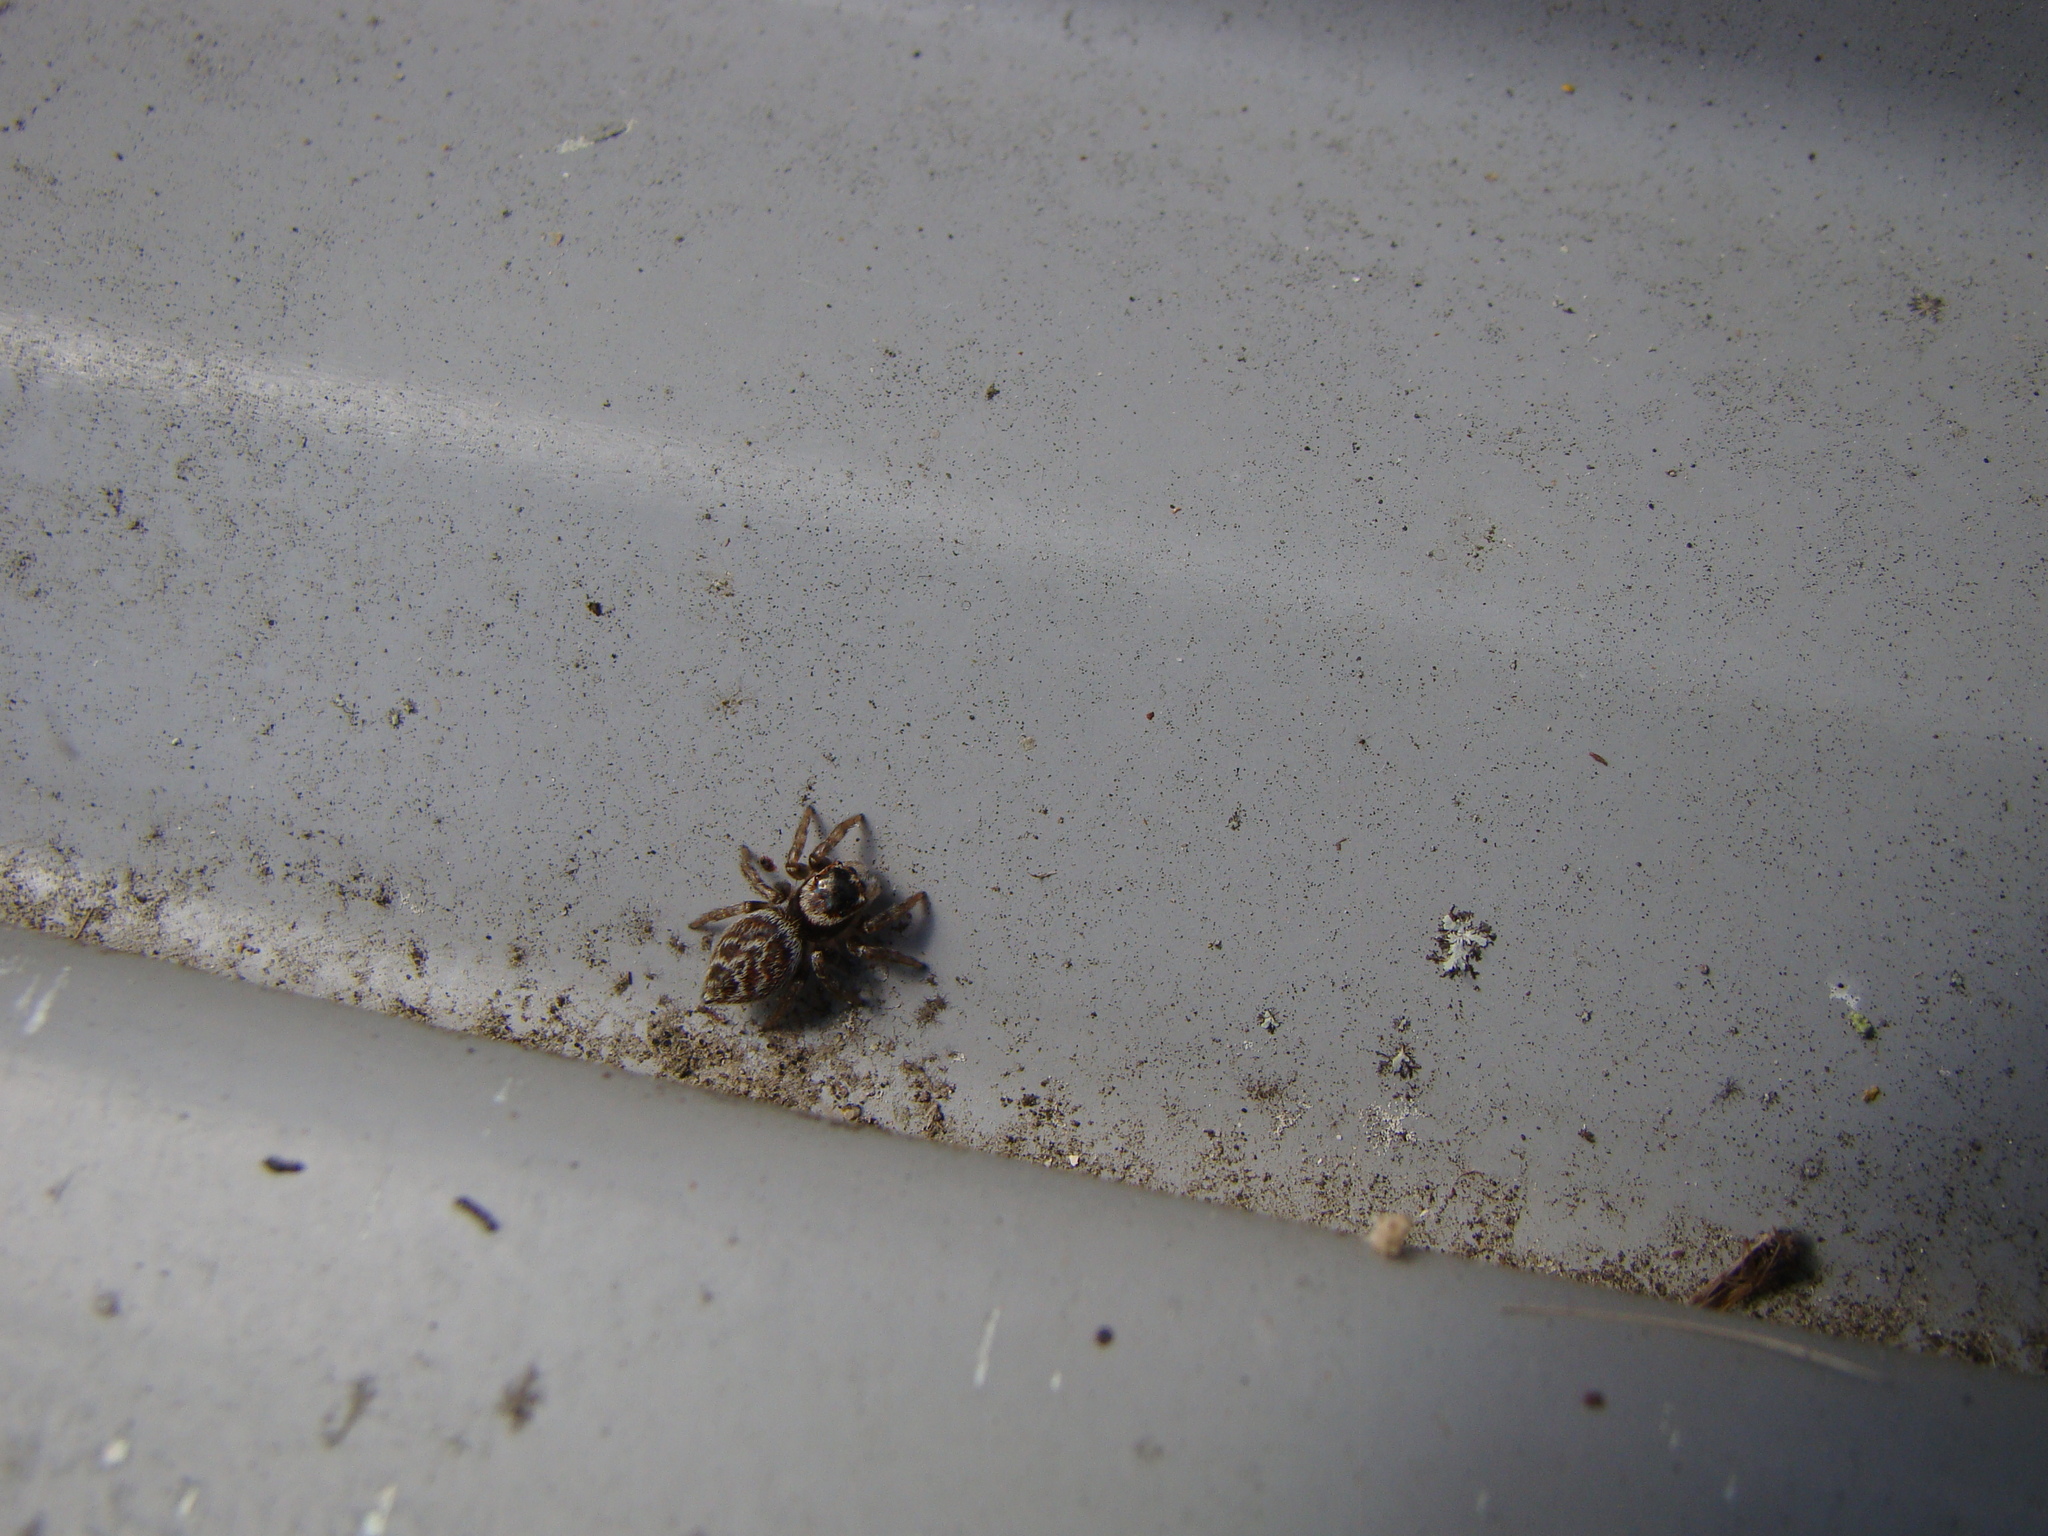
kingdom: Animalia
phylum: Arthropoda
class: Arachnida
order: Araneae
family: Salticidae
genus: Maratus
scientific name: Maratus griseus
